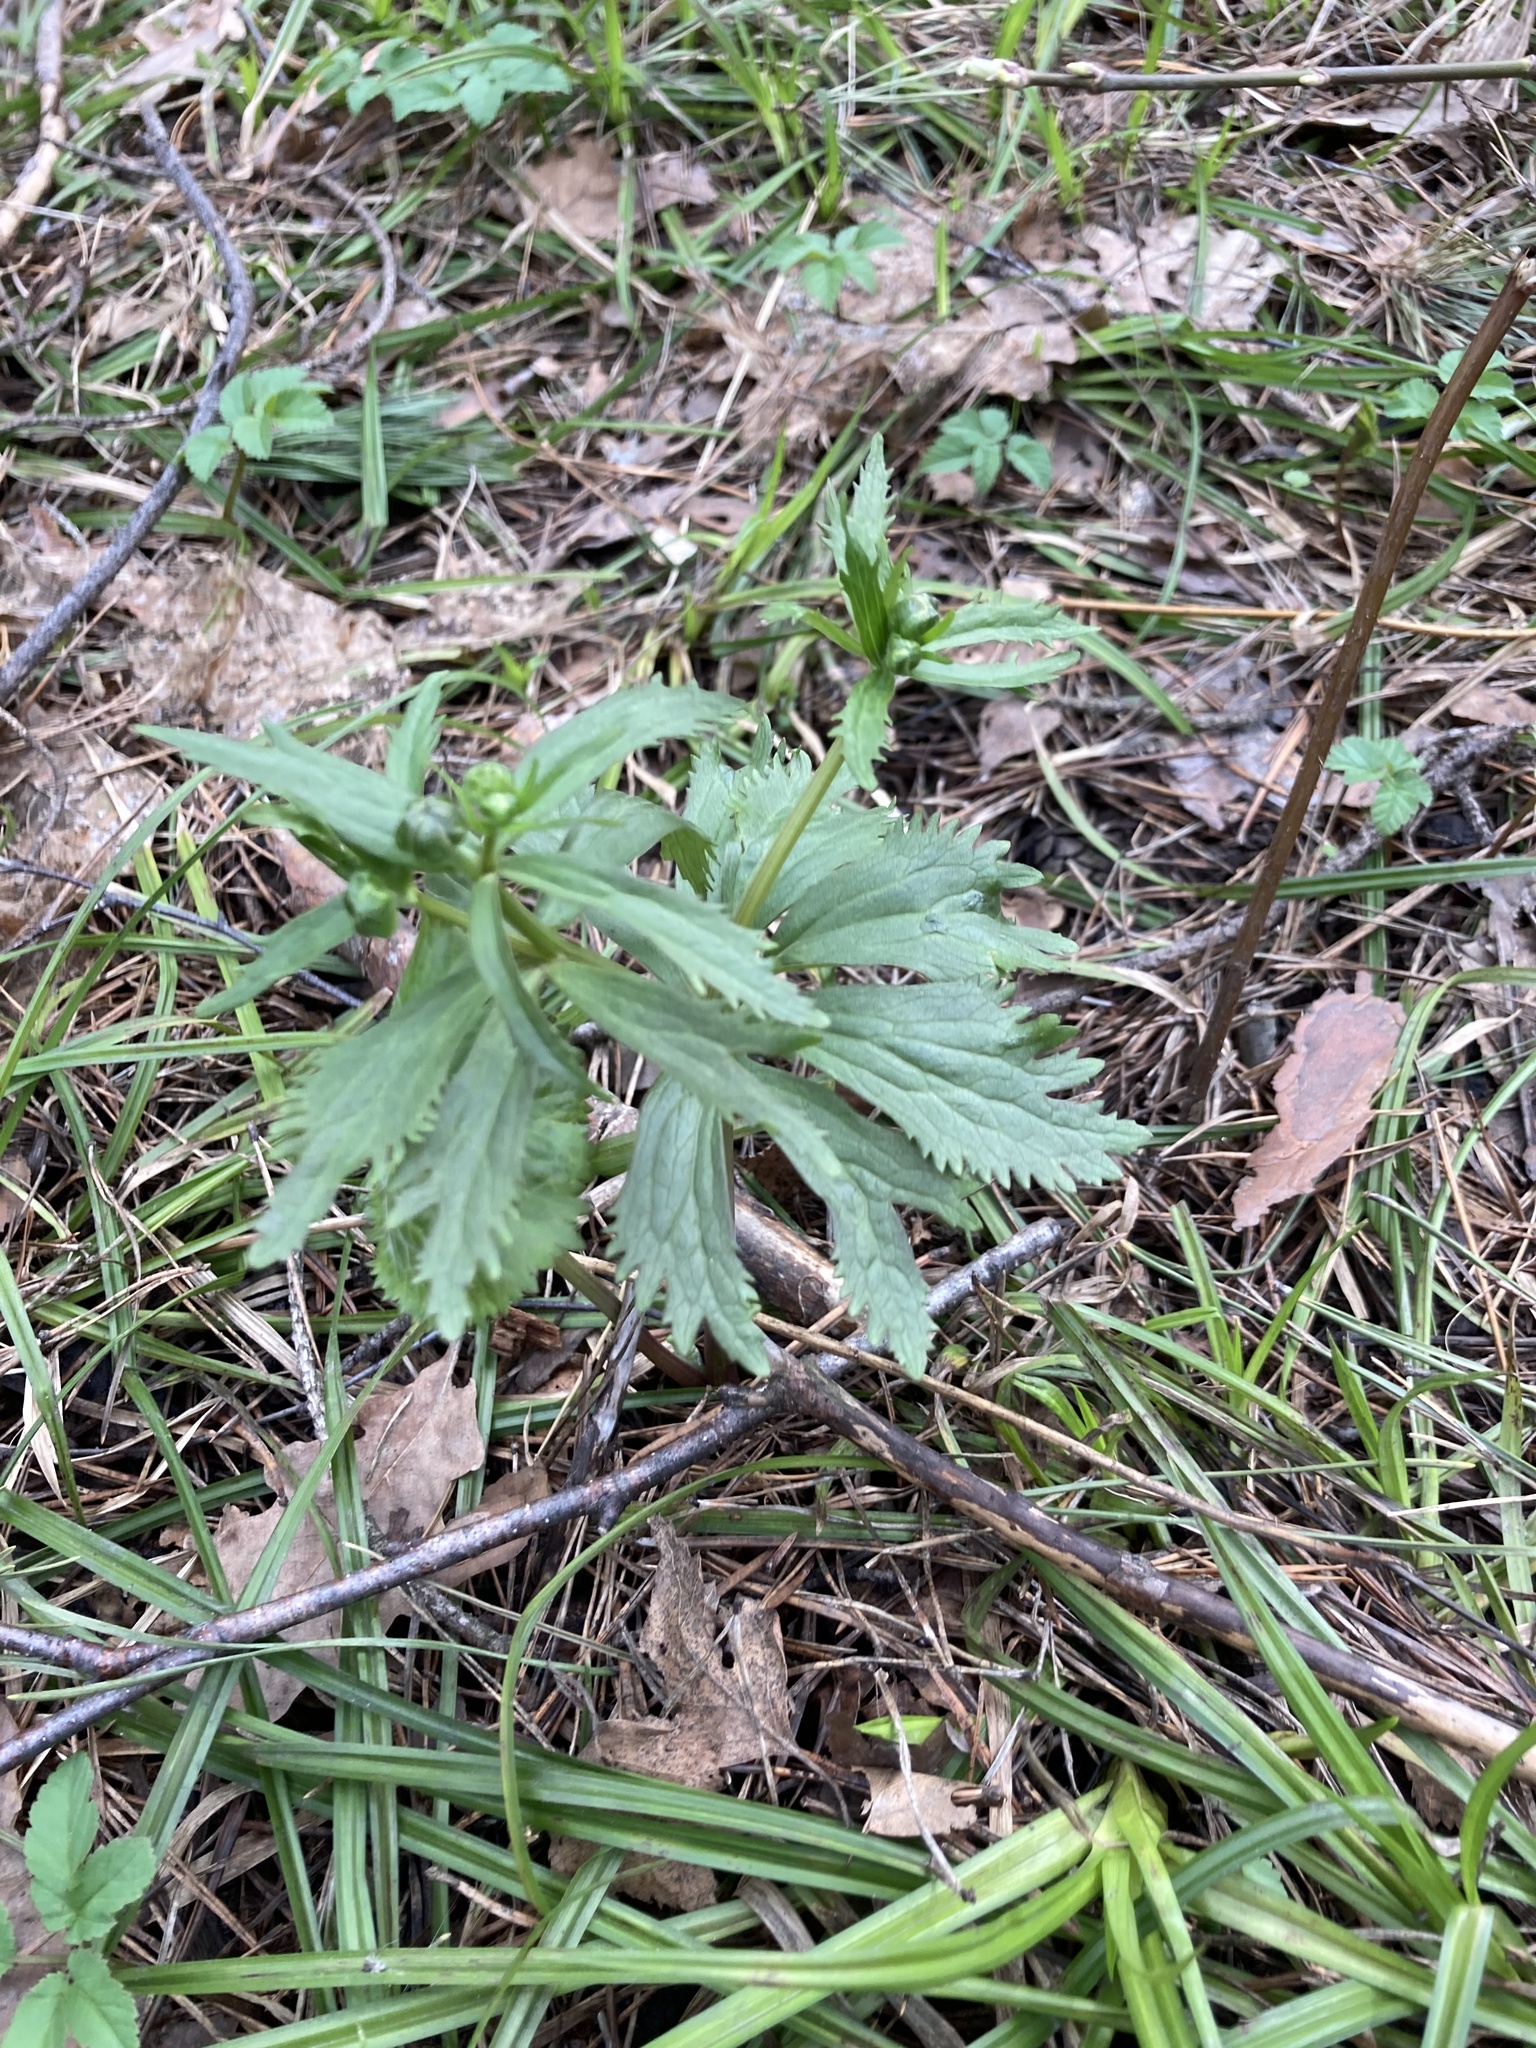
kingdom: Plantae
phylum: Tracheophyta
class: Magnoliopsida
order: Ranunculales
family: Ranunculaceae
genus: Ranunculus
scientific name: Ranunculus cassubicus
